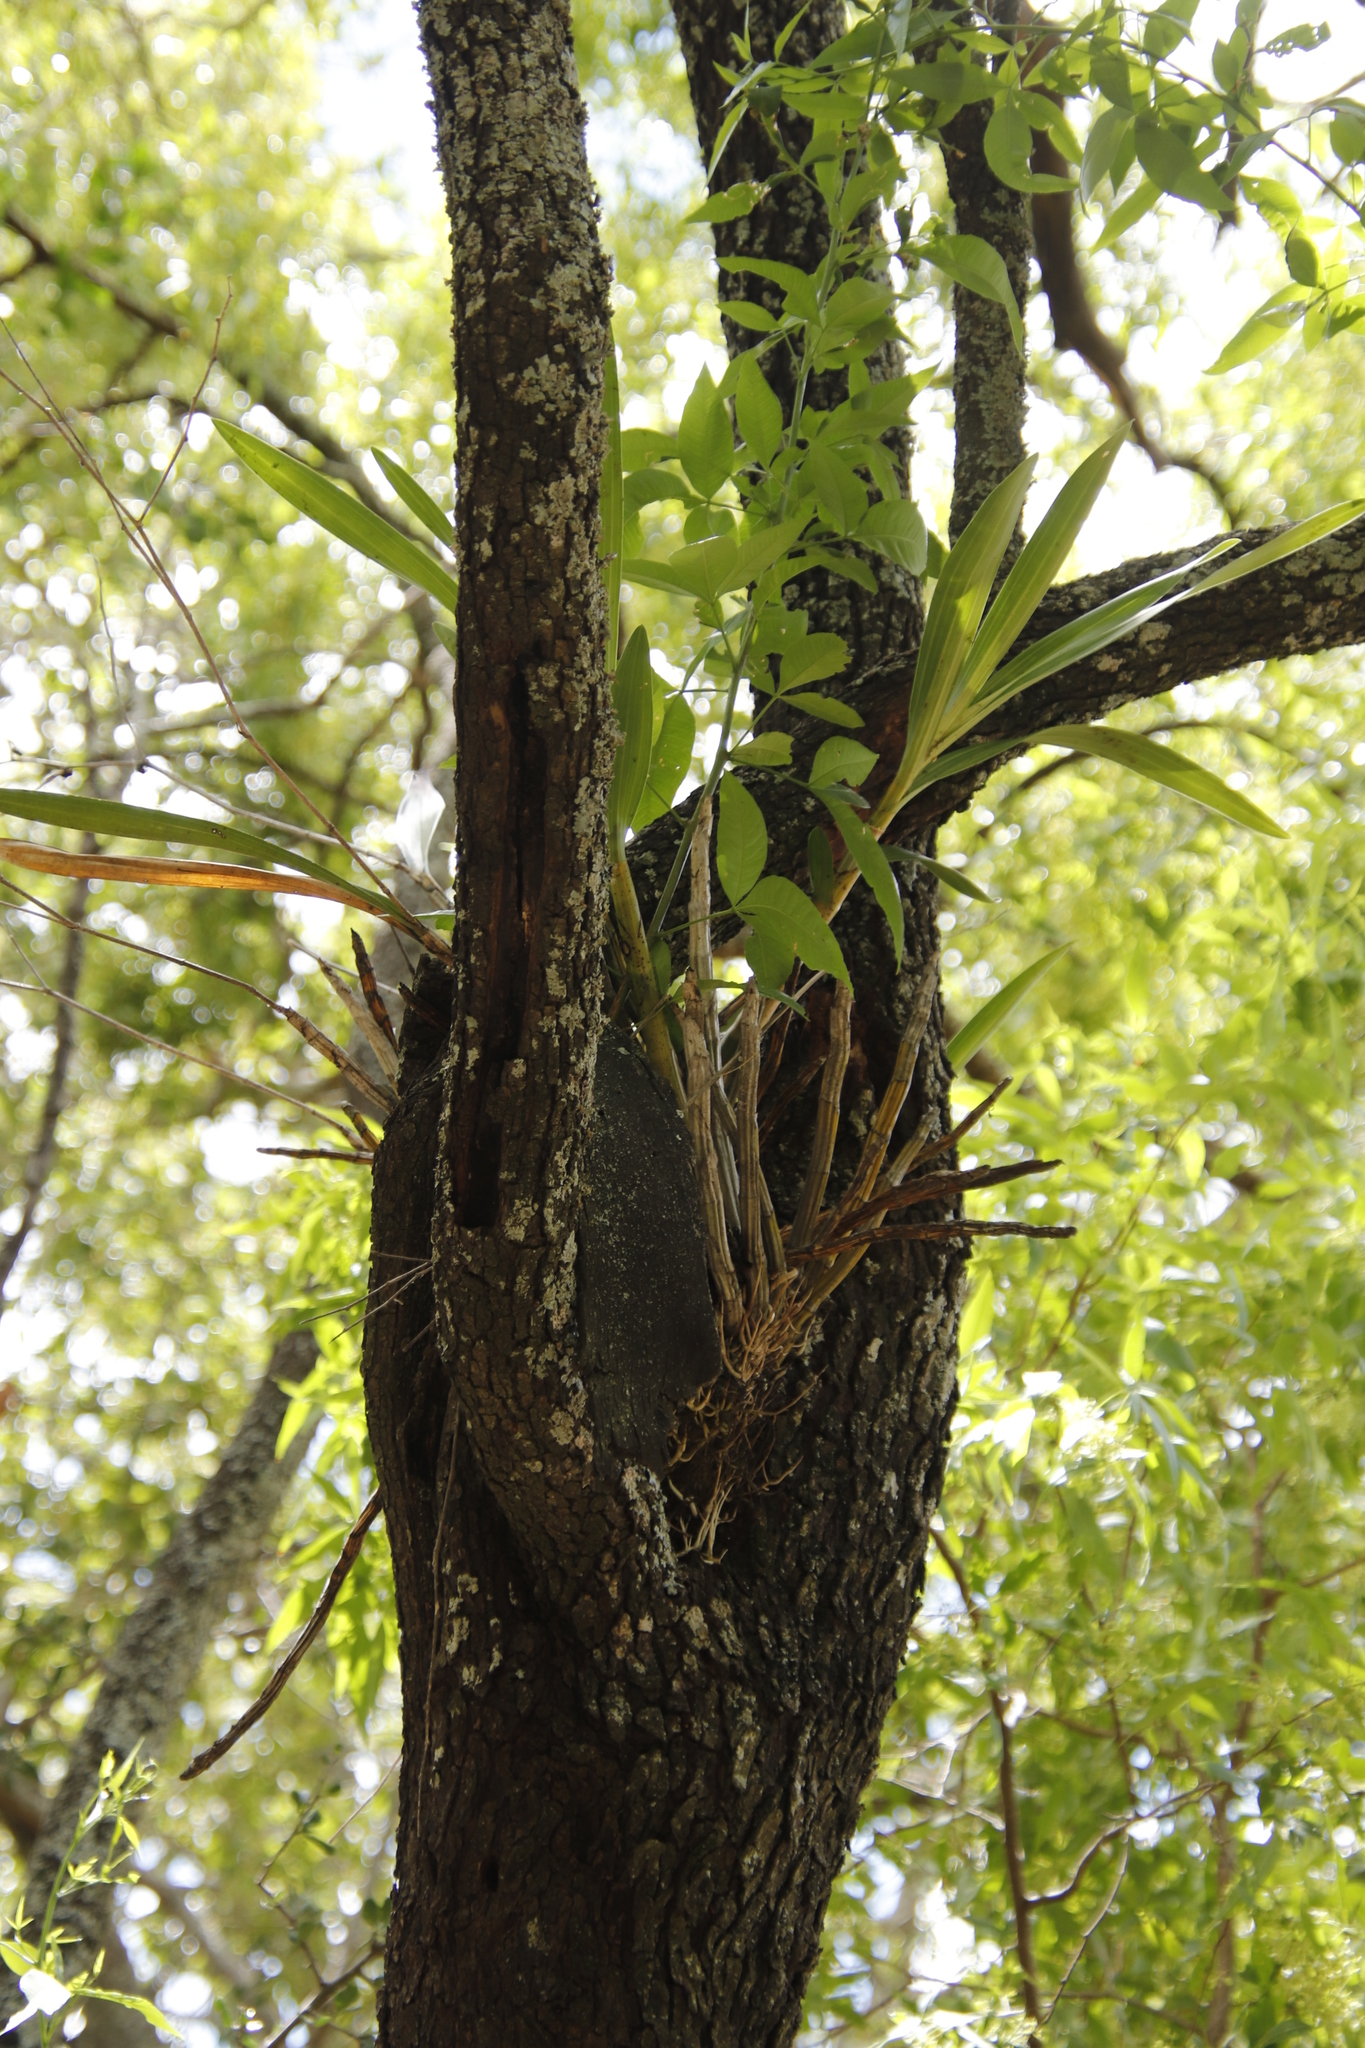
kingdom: Plantae
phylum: Tracheophyta
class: Liliopsida
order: Asparagales
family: Orchidaceae
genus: Ansellia
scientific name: Ansellia africana
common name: African ansellia
